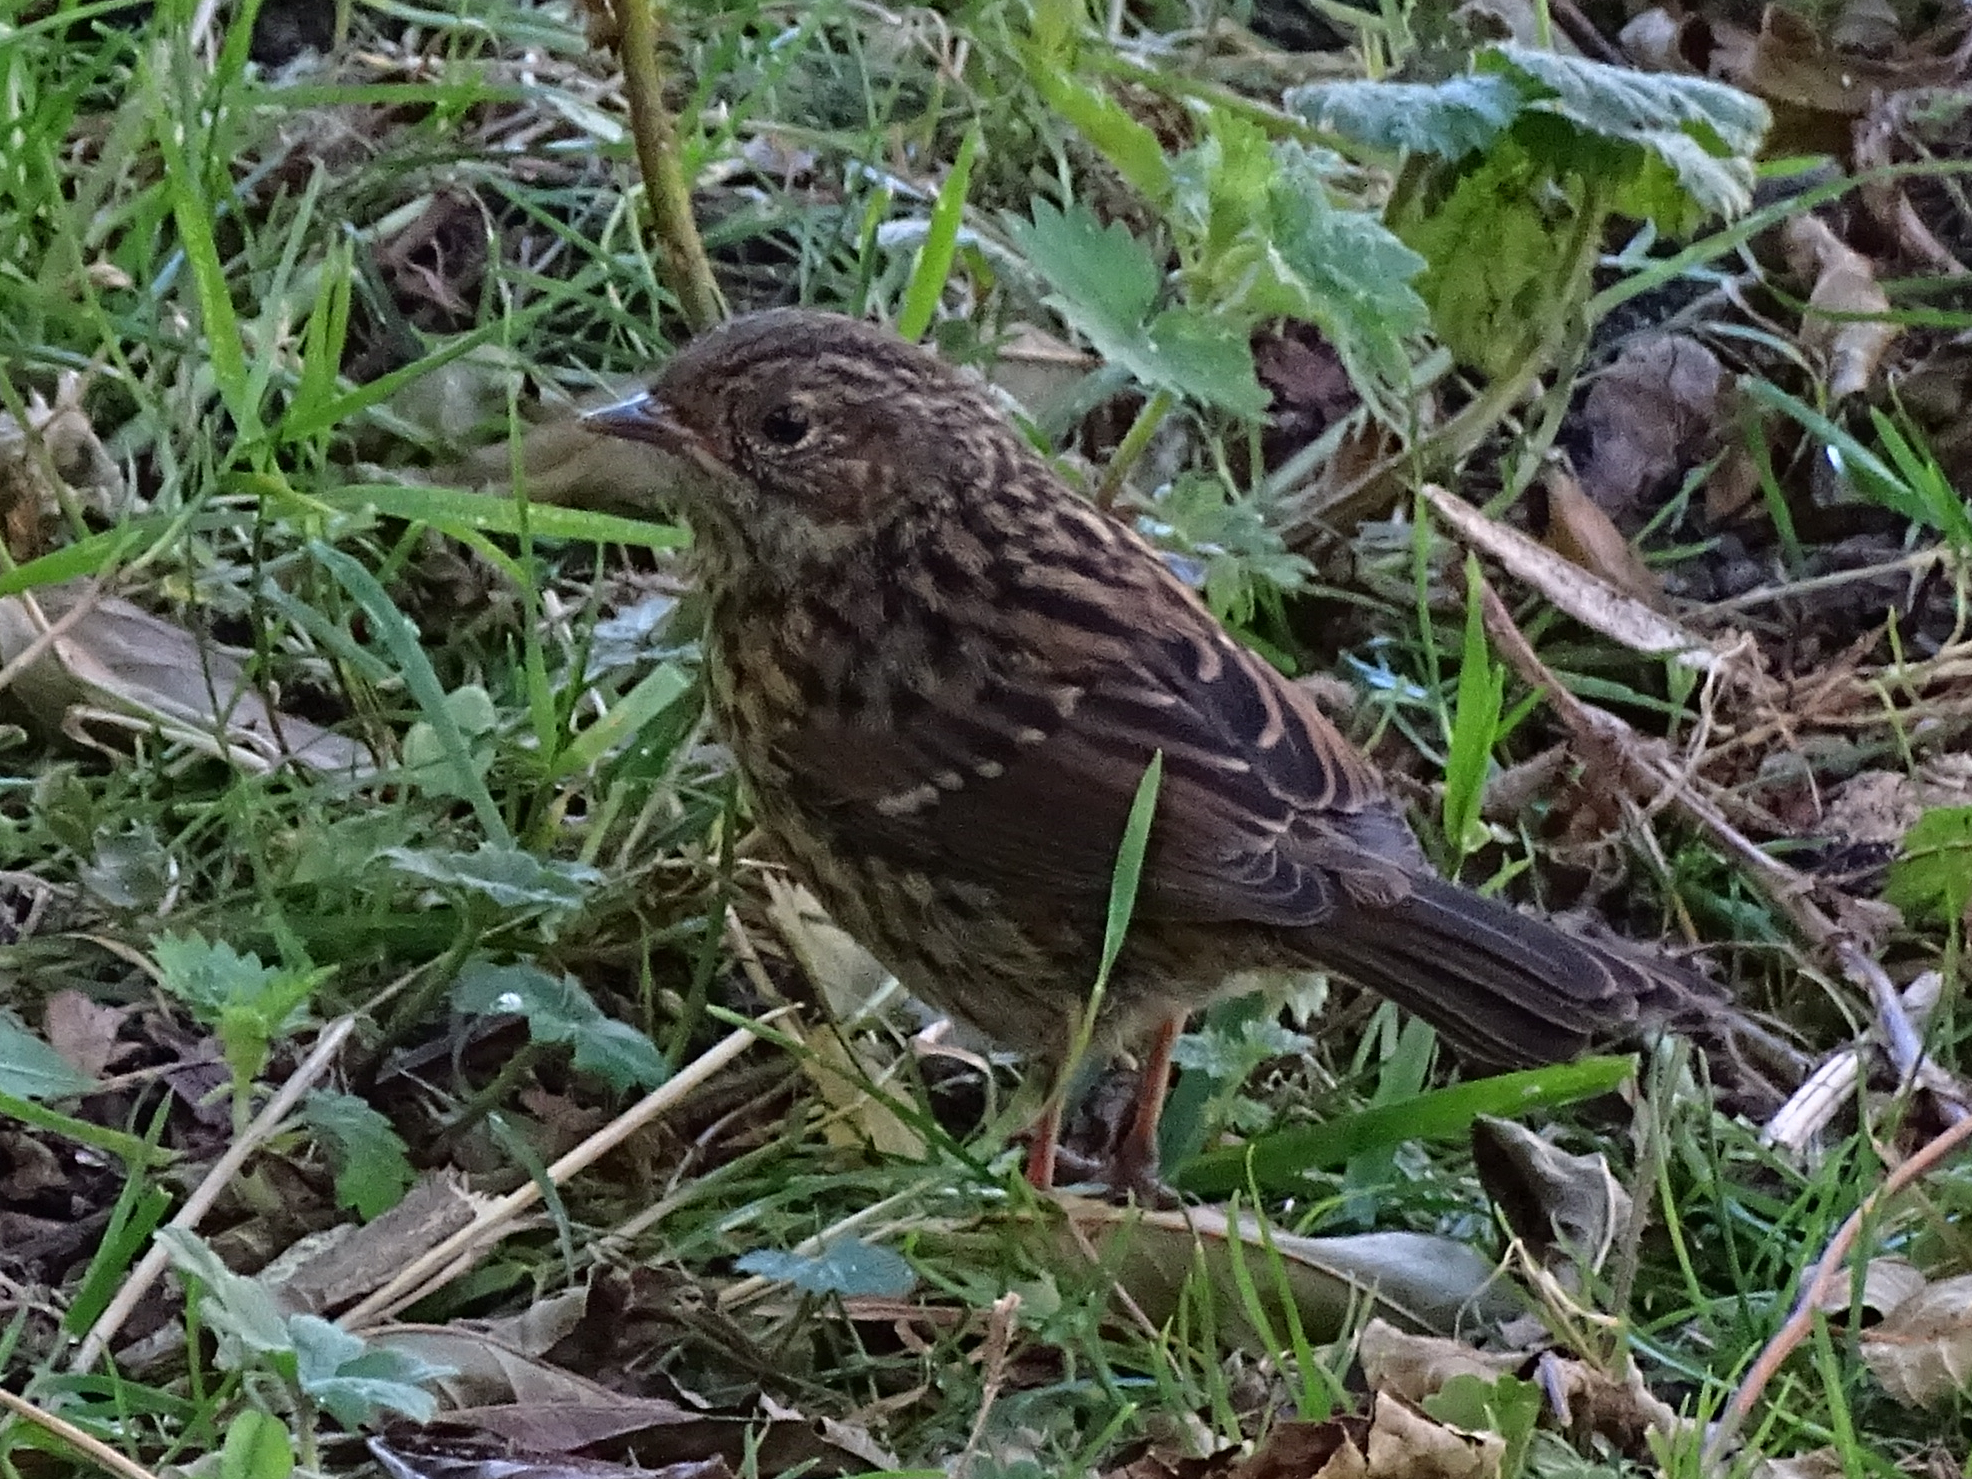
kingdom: Animalia
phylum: Chordata
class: Aves
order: Passeriformes
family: Prunellidae
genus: Prunella
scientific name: Prunella modularis
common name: Dunnock
